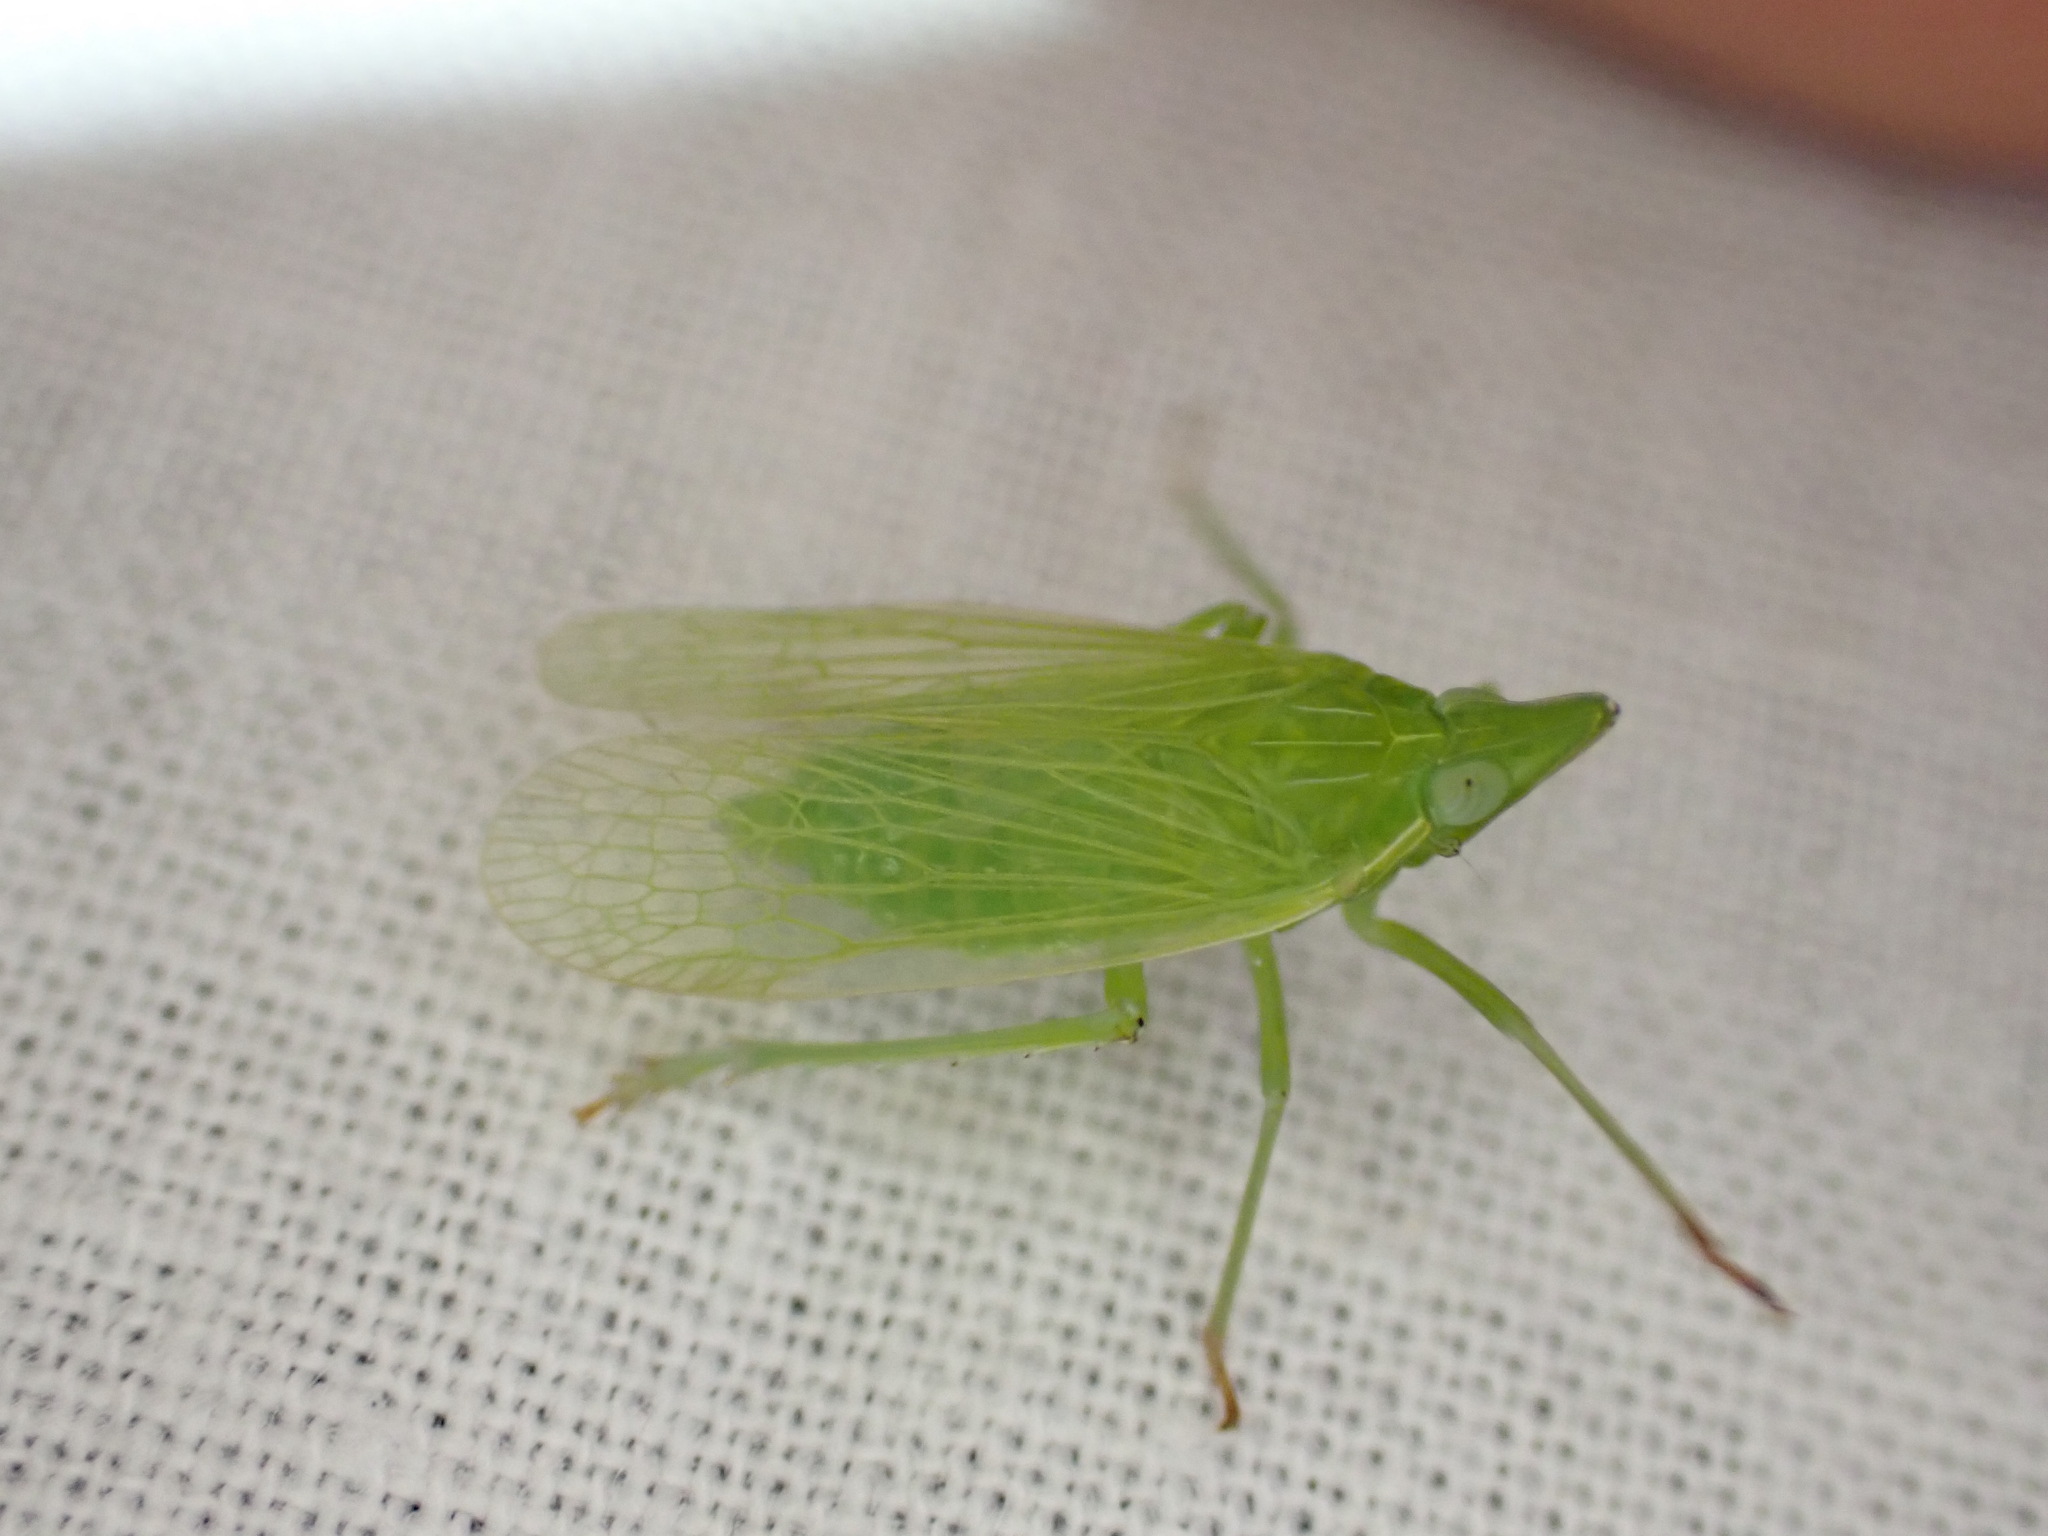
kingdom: Animalia
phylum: Arthropoda
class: Insecta
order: Hemiptera
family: Dictyopharidae
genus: Dictyophara
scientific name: Dictyophara europaea
